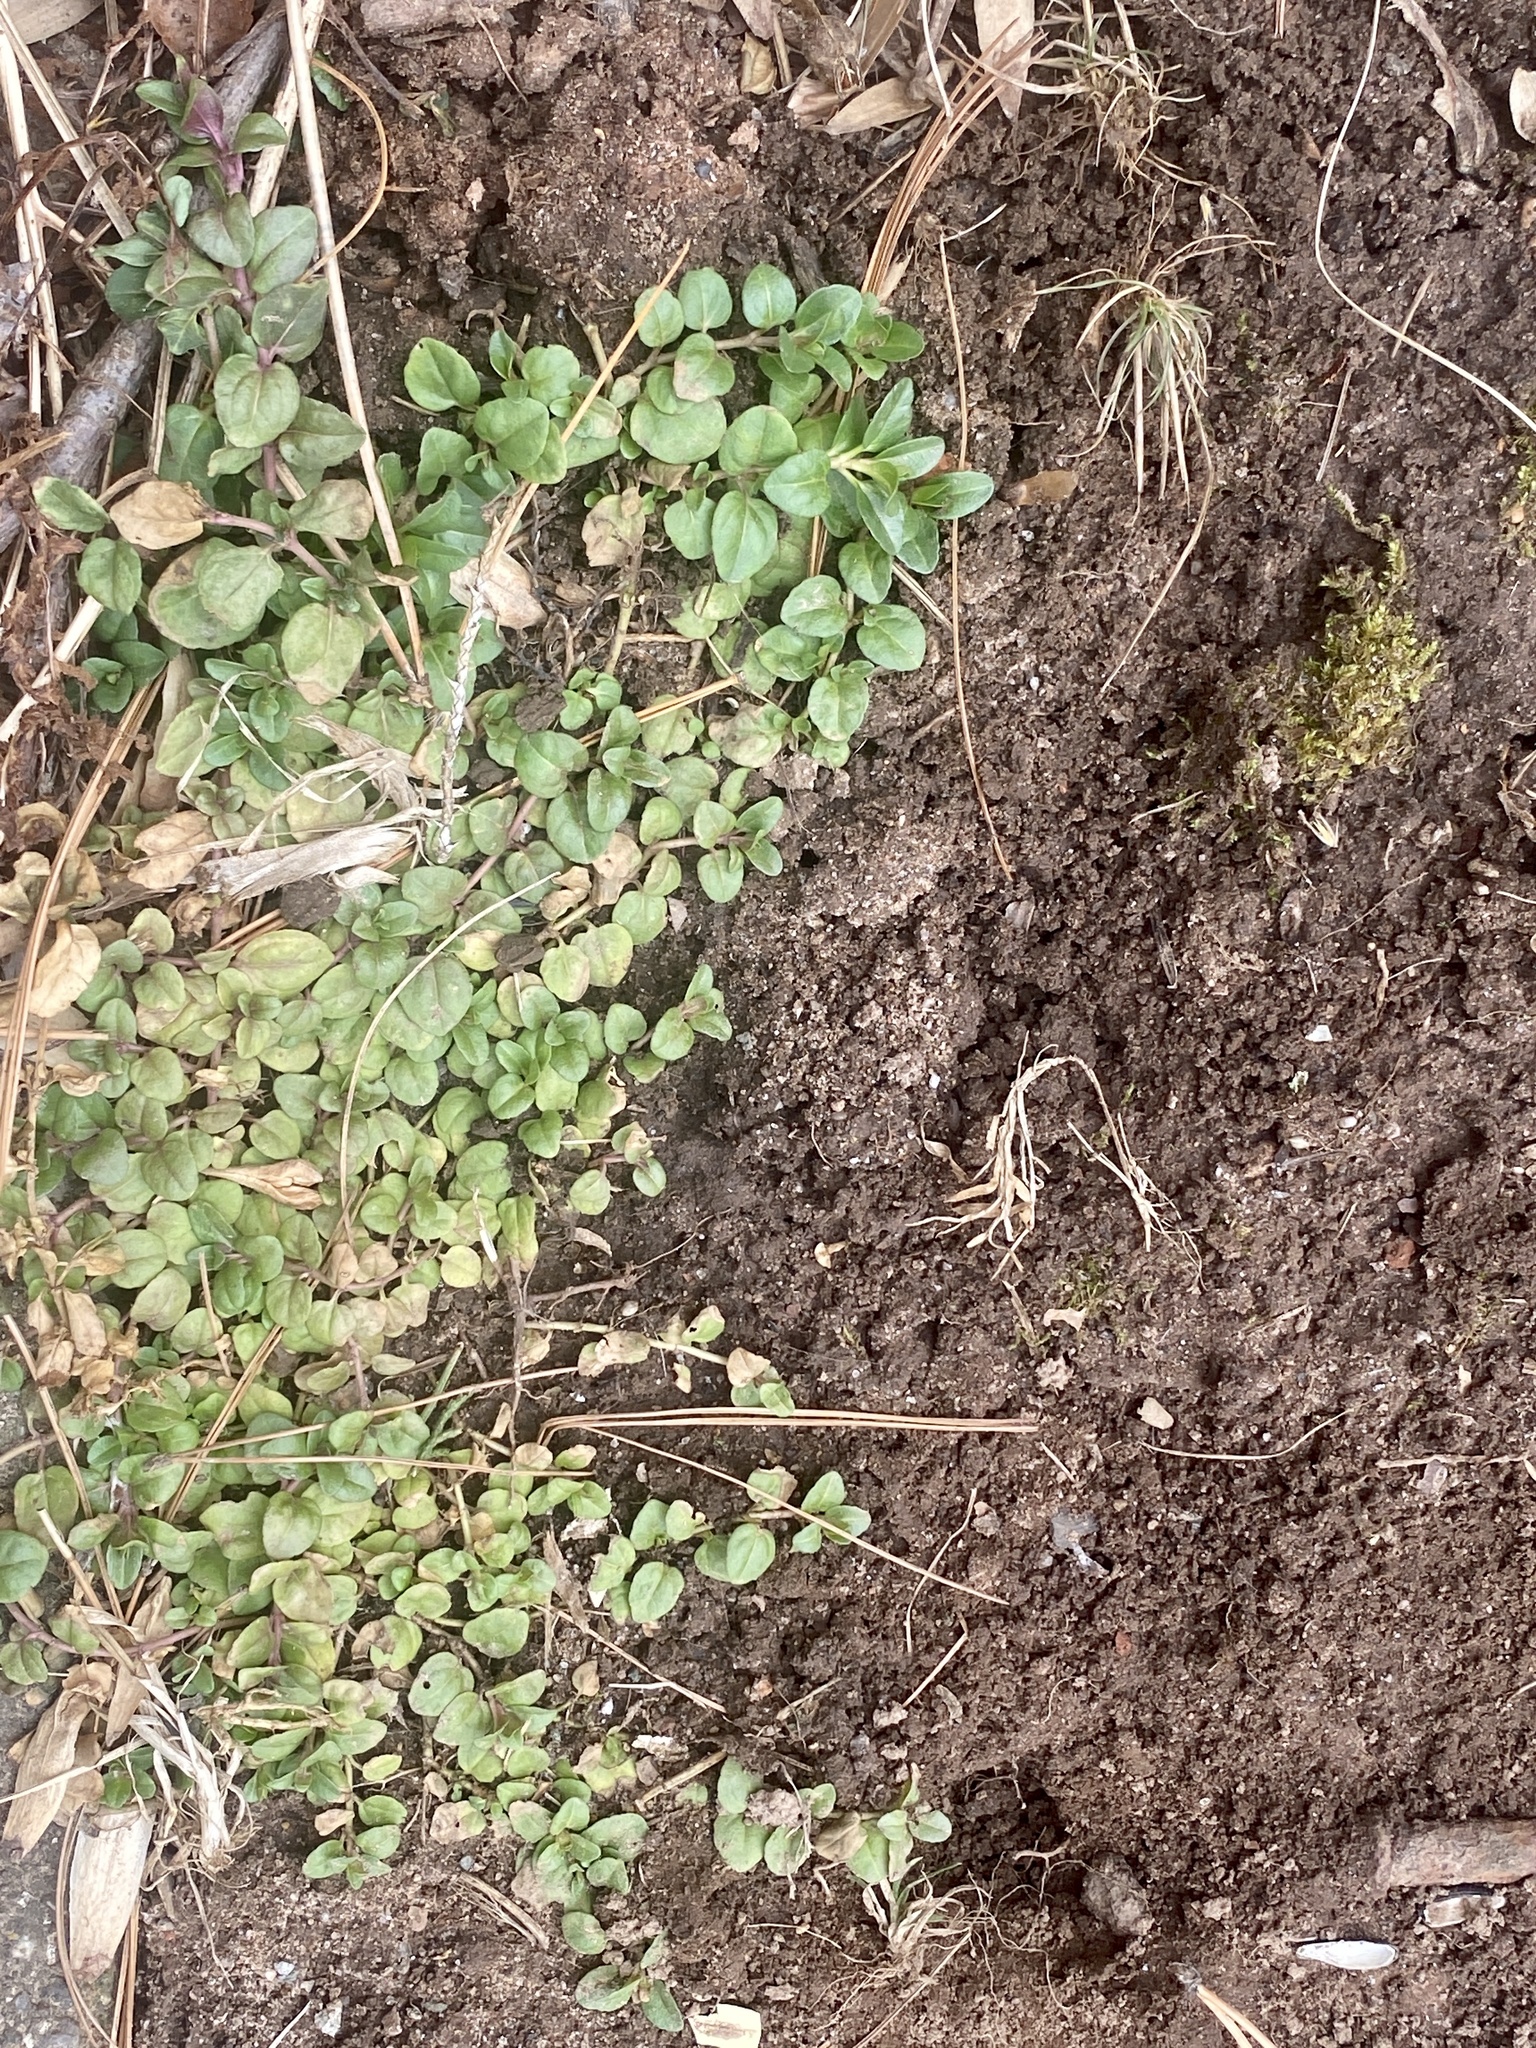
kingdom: Plantae
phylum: Tracheophyta
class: Magnoliopsida
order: Lamiales
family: Plantaginaceae
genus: Veronica
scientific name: Veronica serpyllifolia
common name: Thyme-leaved speedwell
